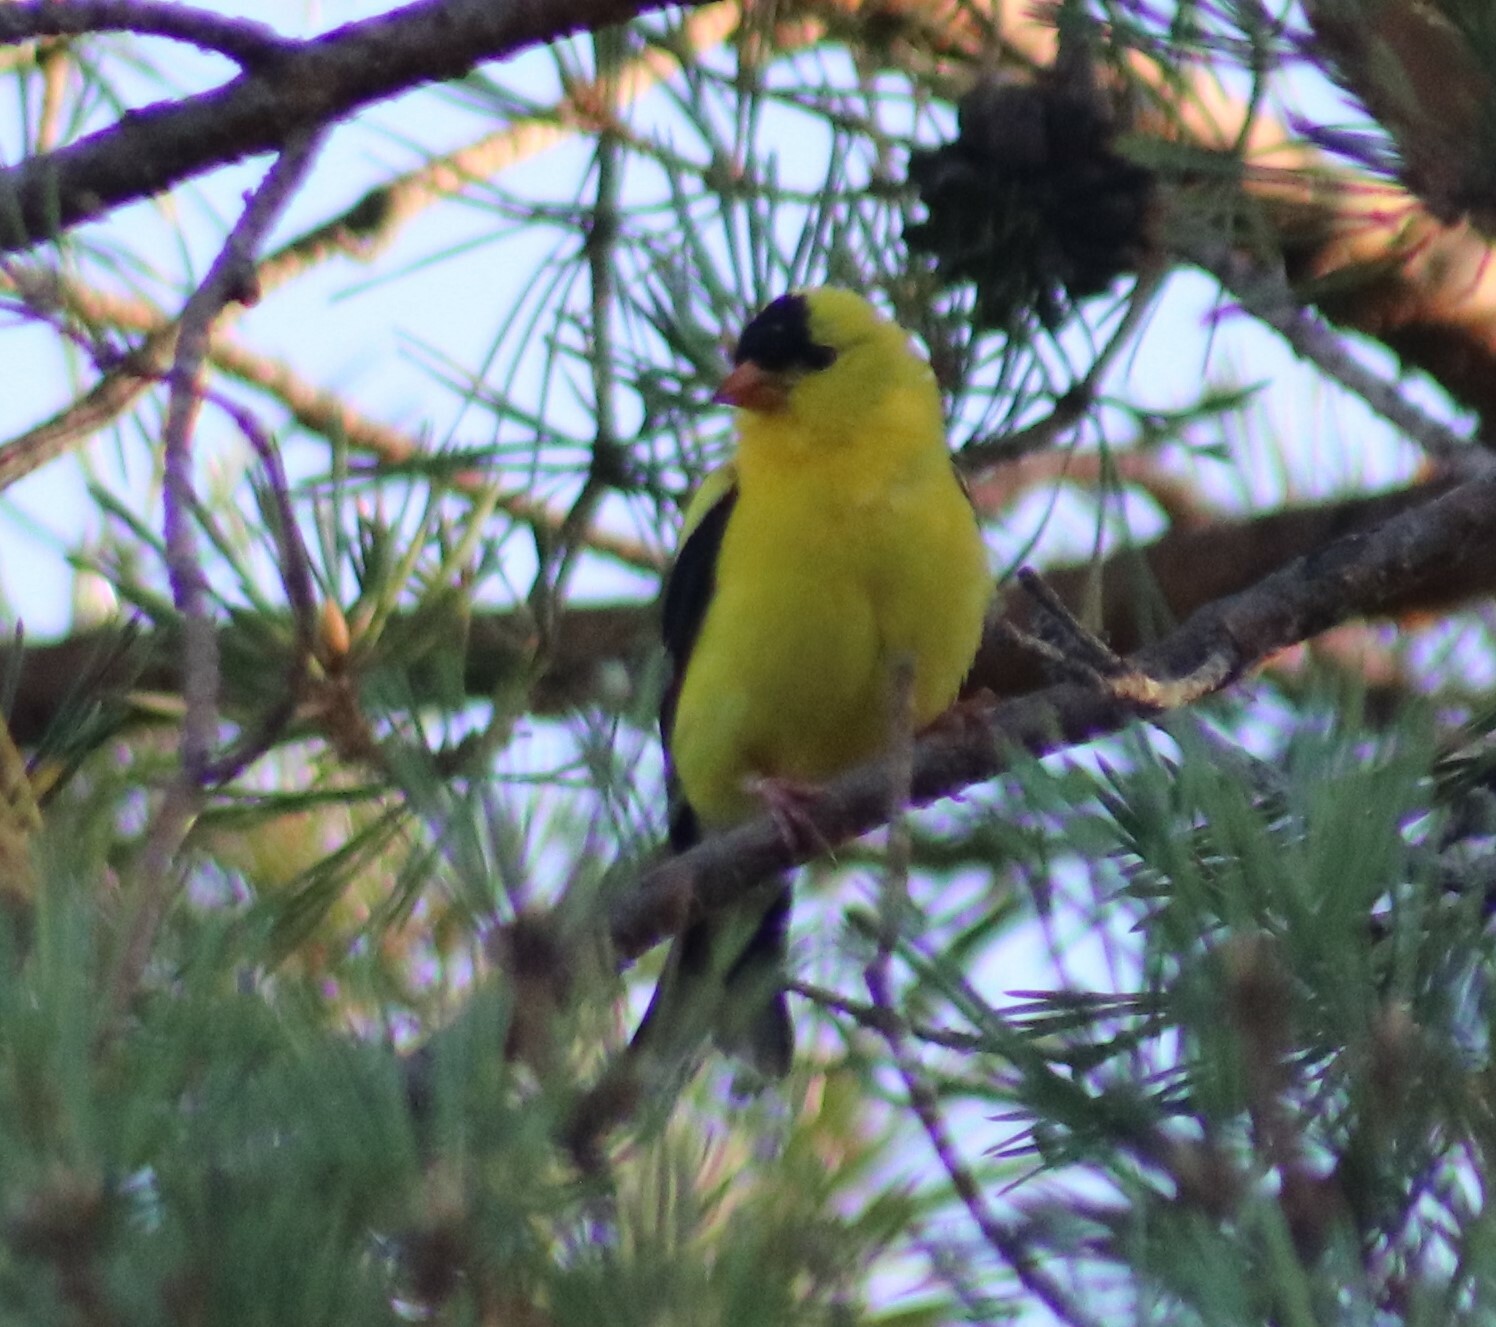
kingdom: Animalia
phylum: Chordata
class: Aves
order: Passeriformes
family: Fringillidae
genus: Spinus
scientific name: Spinus tristis
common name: American goldfinch
